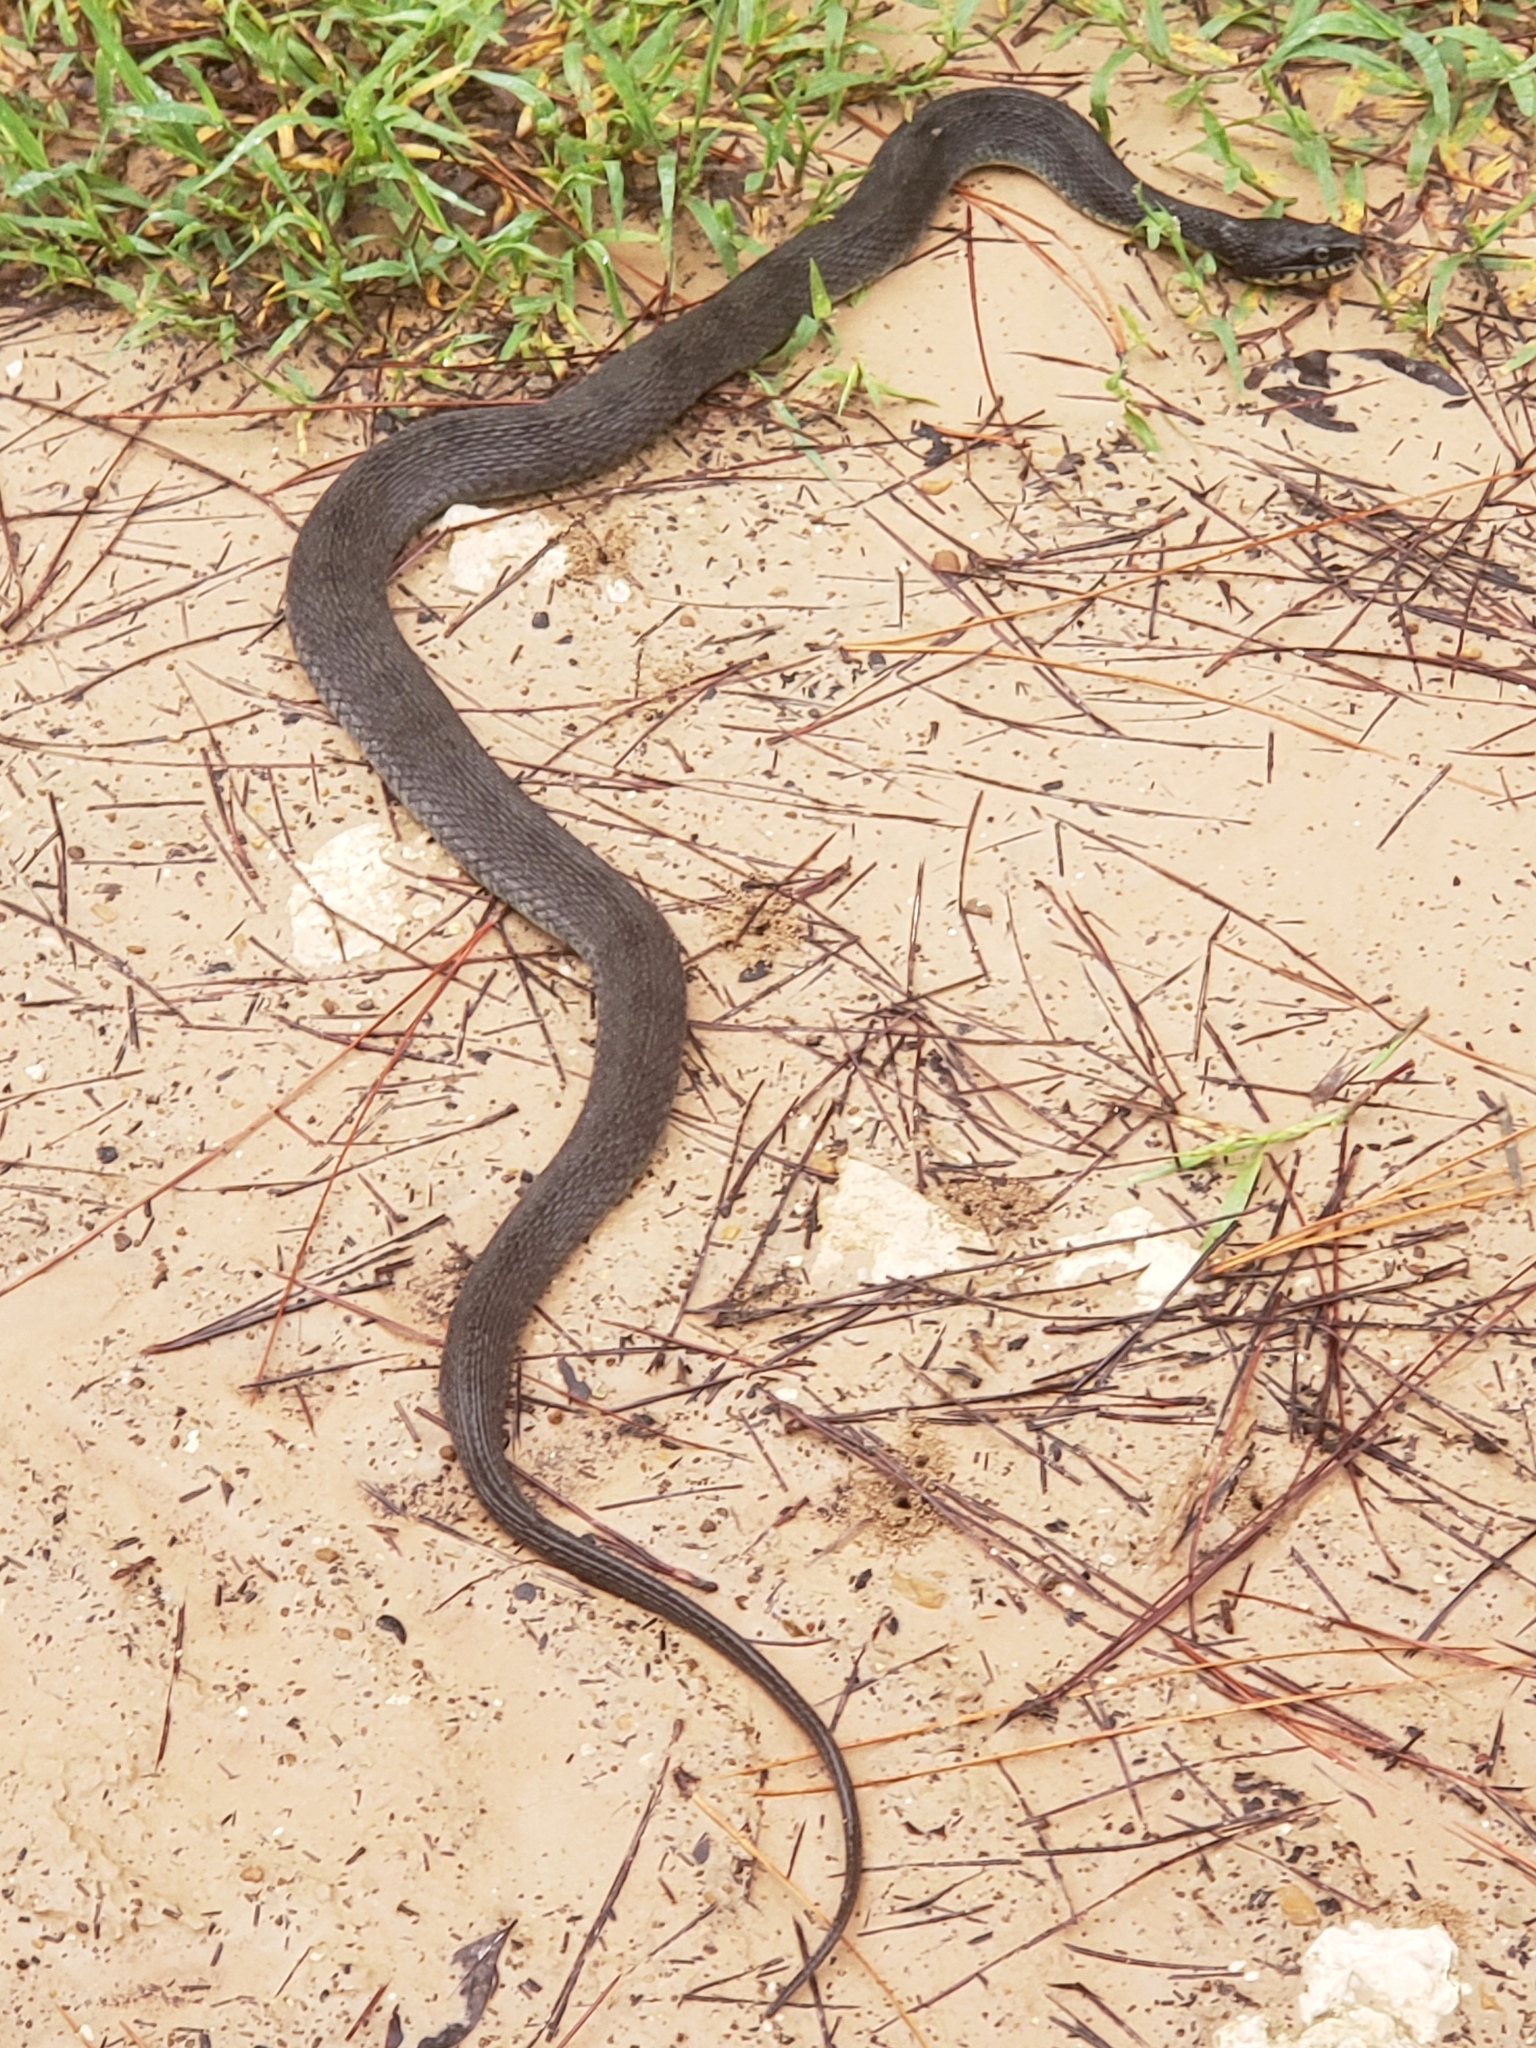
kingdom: Animalia
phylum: Chordata
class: Squamata
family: Colubridae
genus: Nerodia
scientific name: Nerodia erythrogaster
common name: Plainbelly water snake
